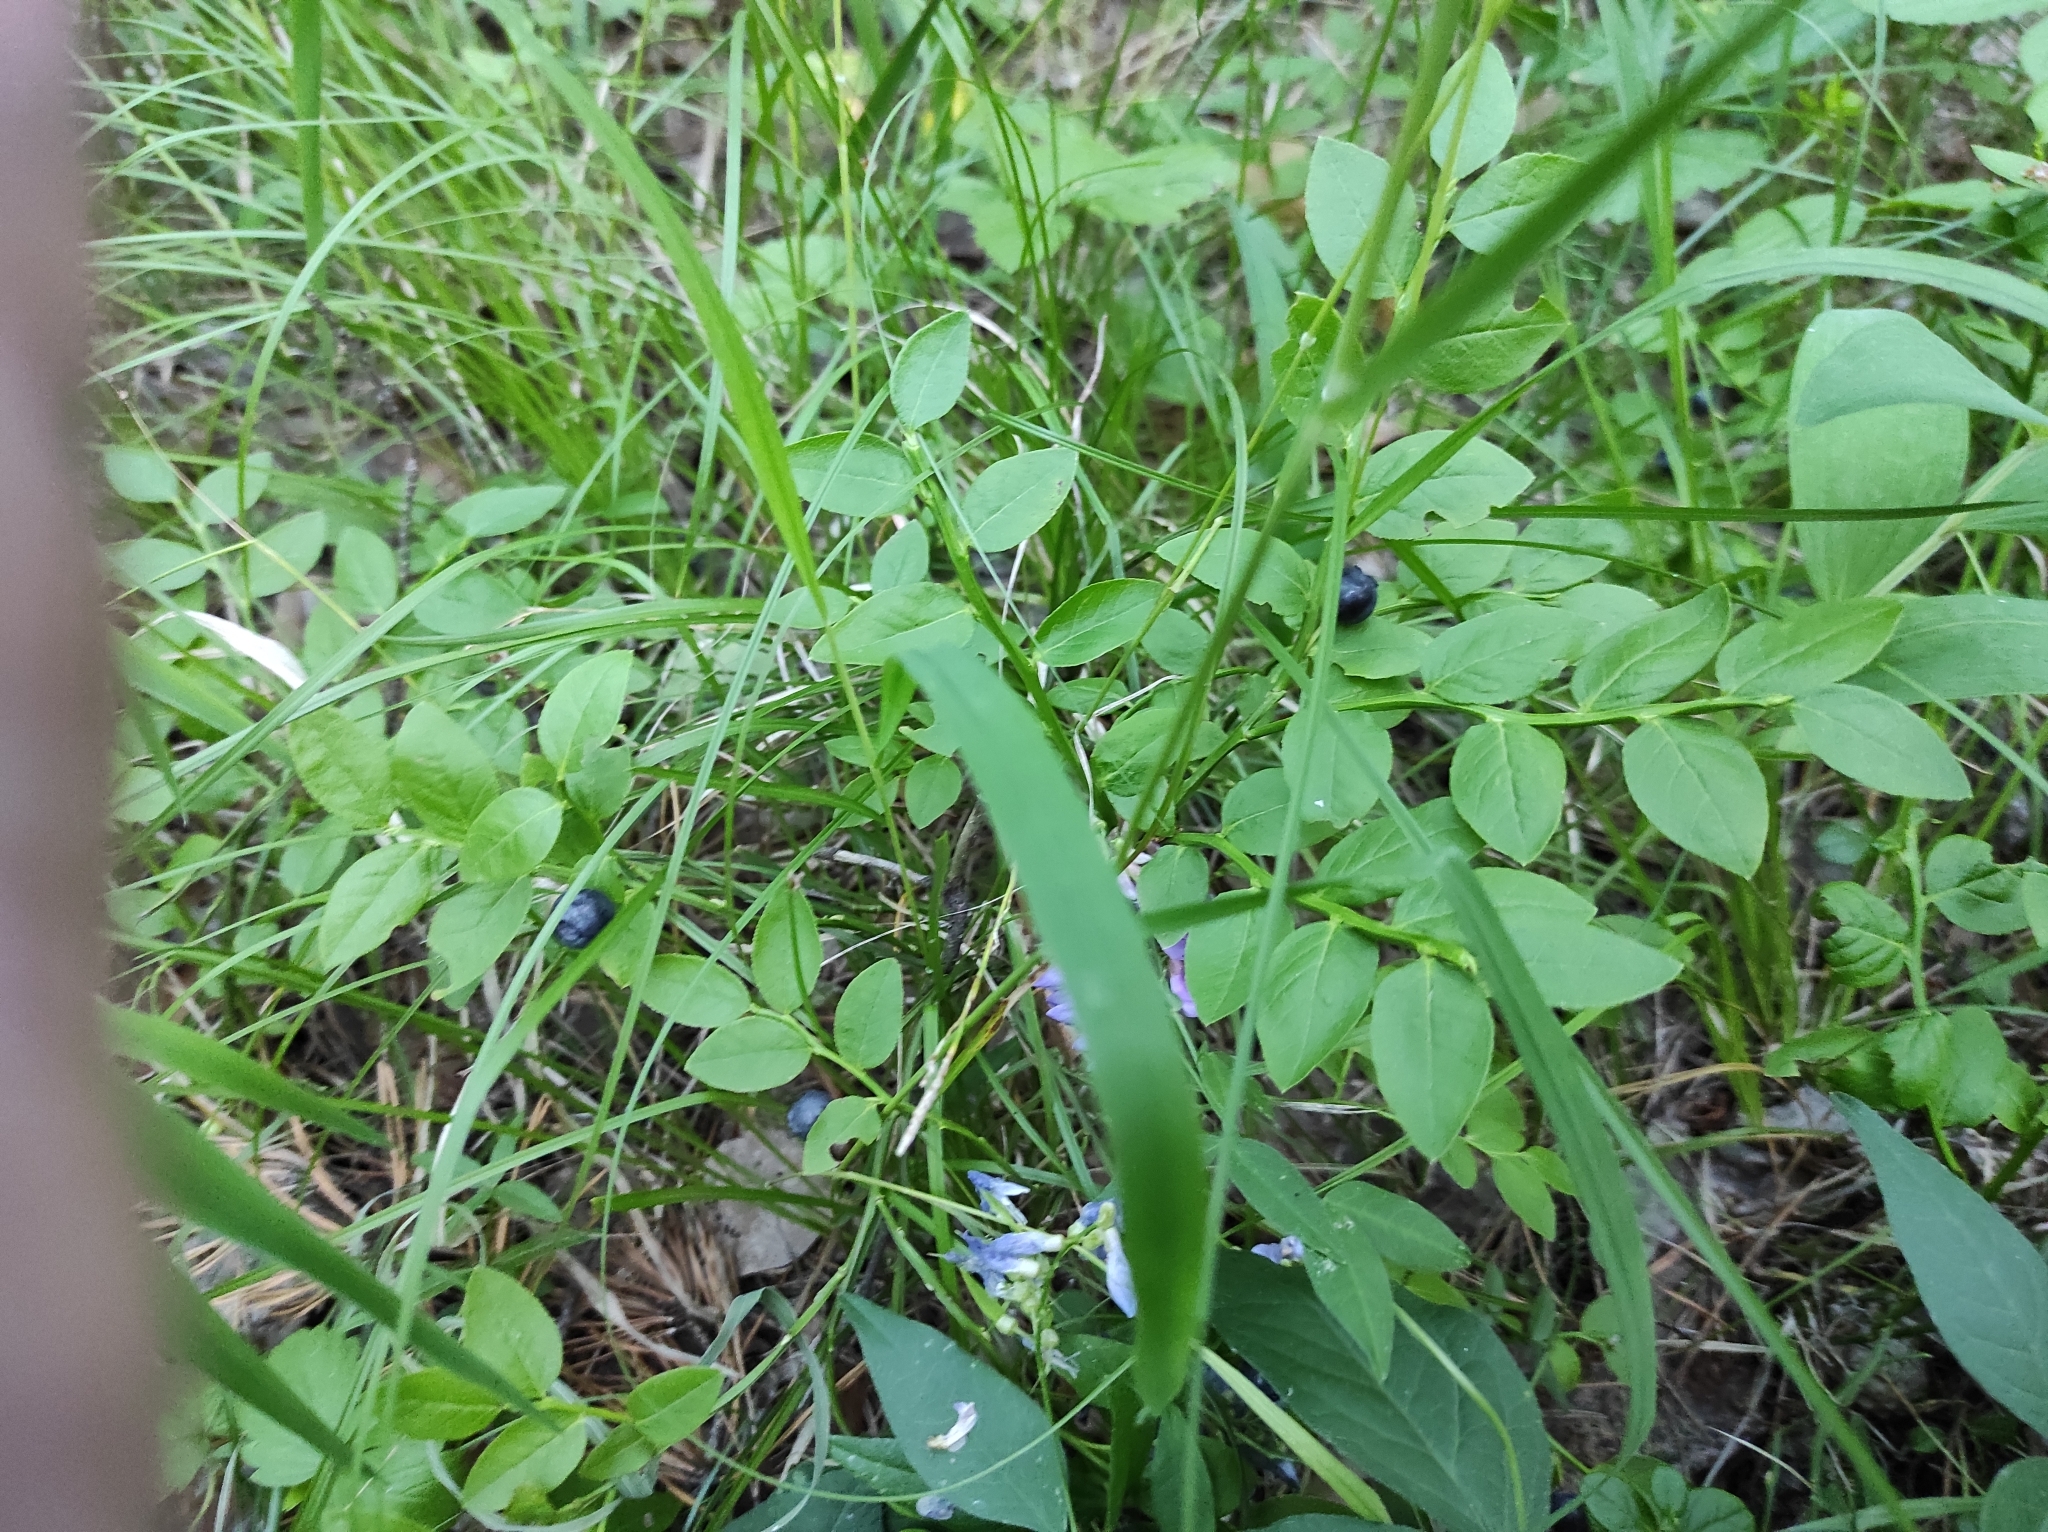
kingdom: Plantae
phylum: Tracheophyta
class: Magnoliopsida
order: Ericales
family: Ericaceae
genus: Vaccinium
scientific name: Vaccinium myrtillus
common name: Bilberry
